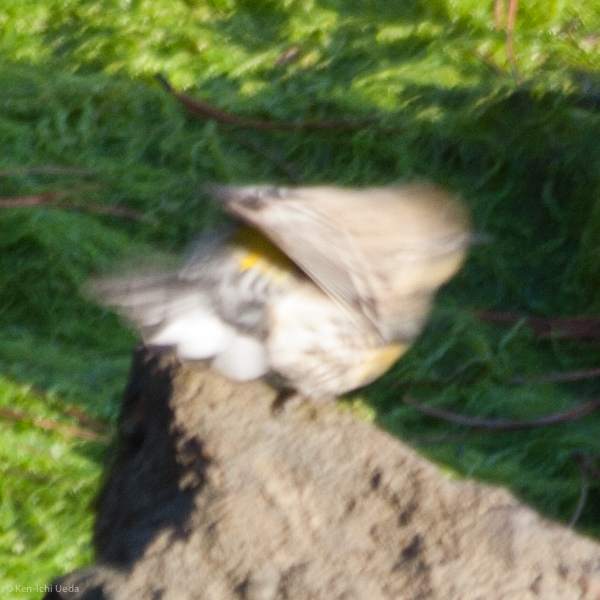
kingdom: Animalia
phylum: Chordata
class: Aves
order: Passeriformes
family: Parulidae
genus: Setophaga
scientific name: Setophaga coronata
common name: Myrtle warbler
